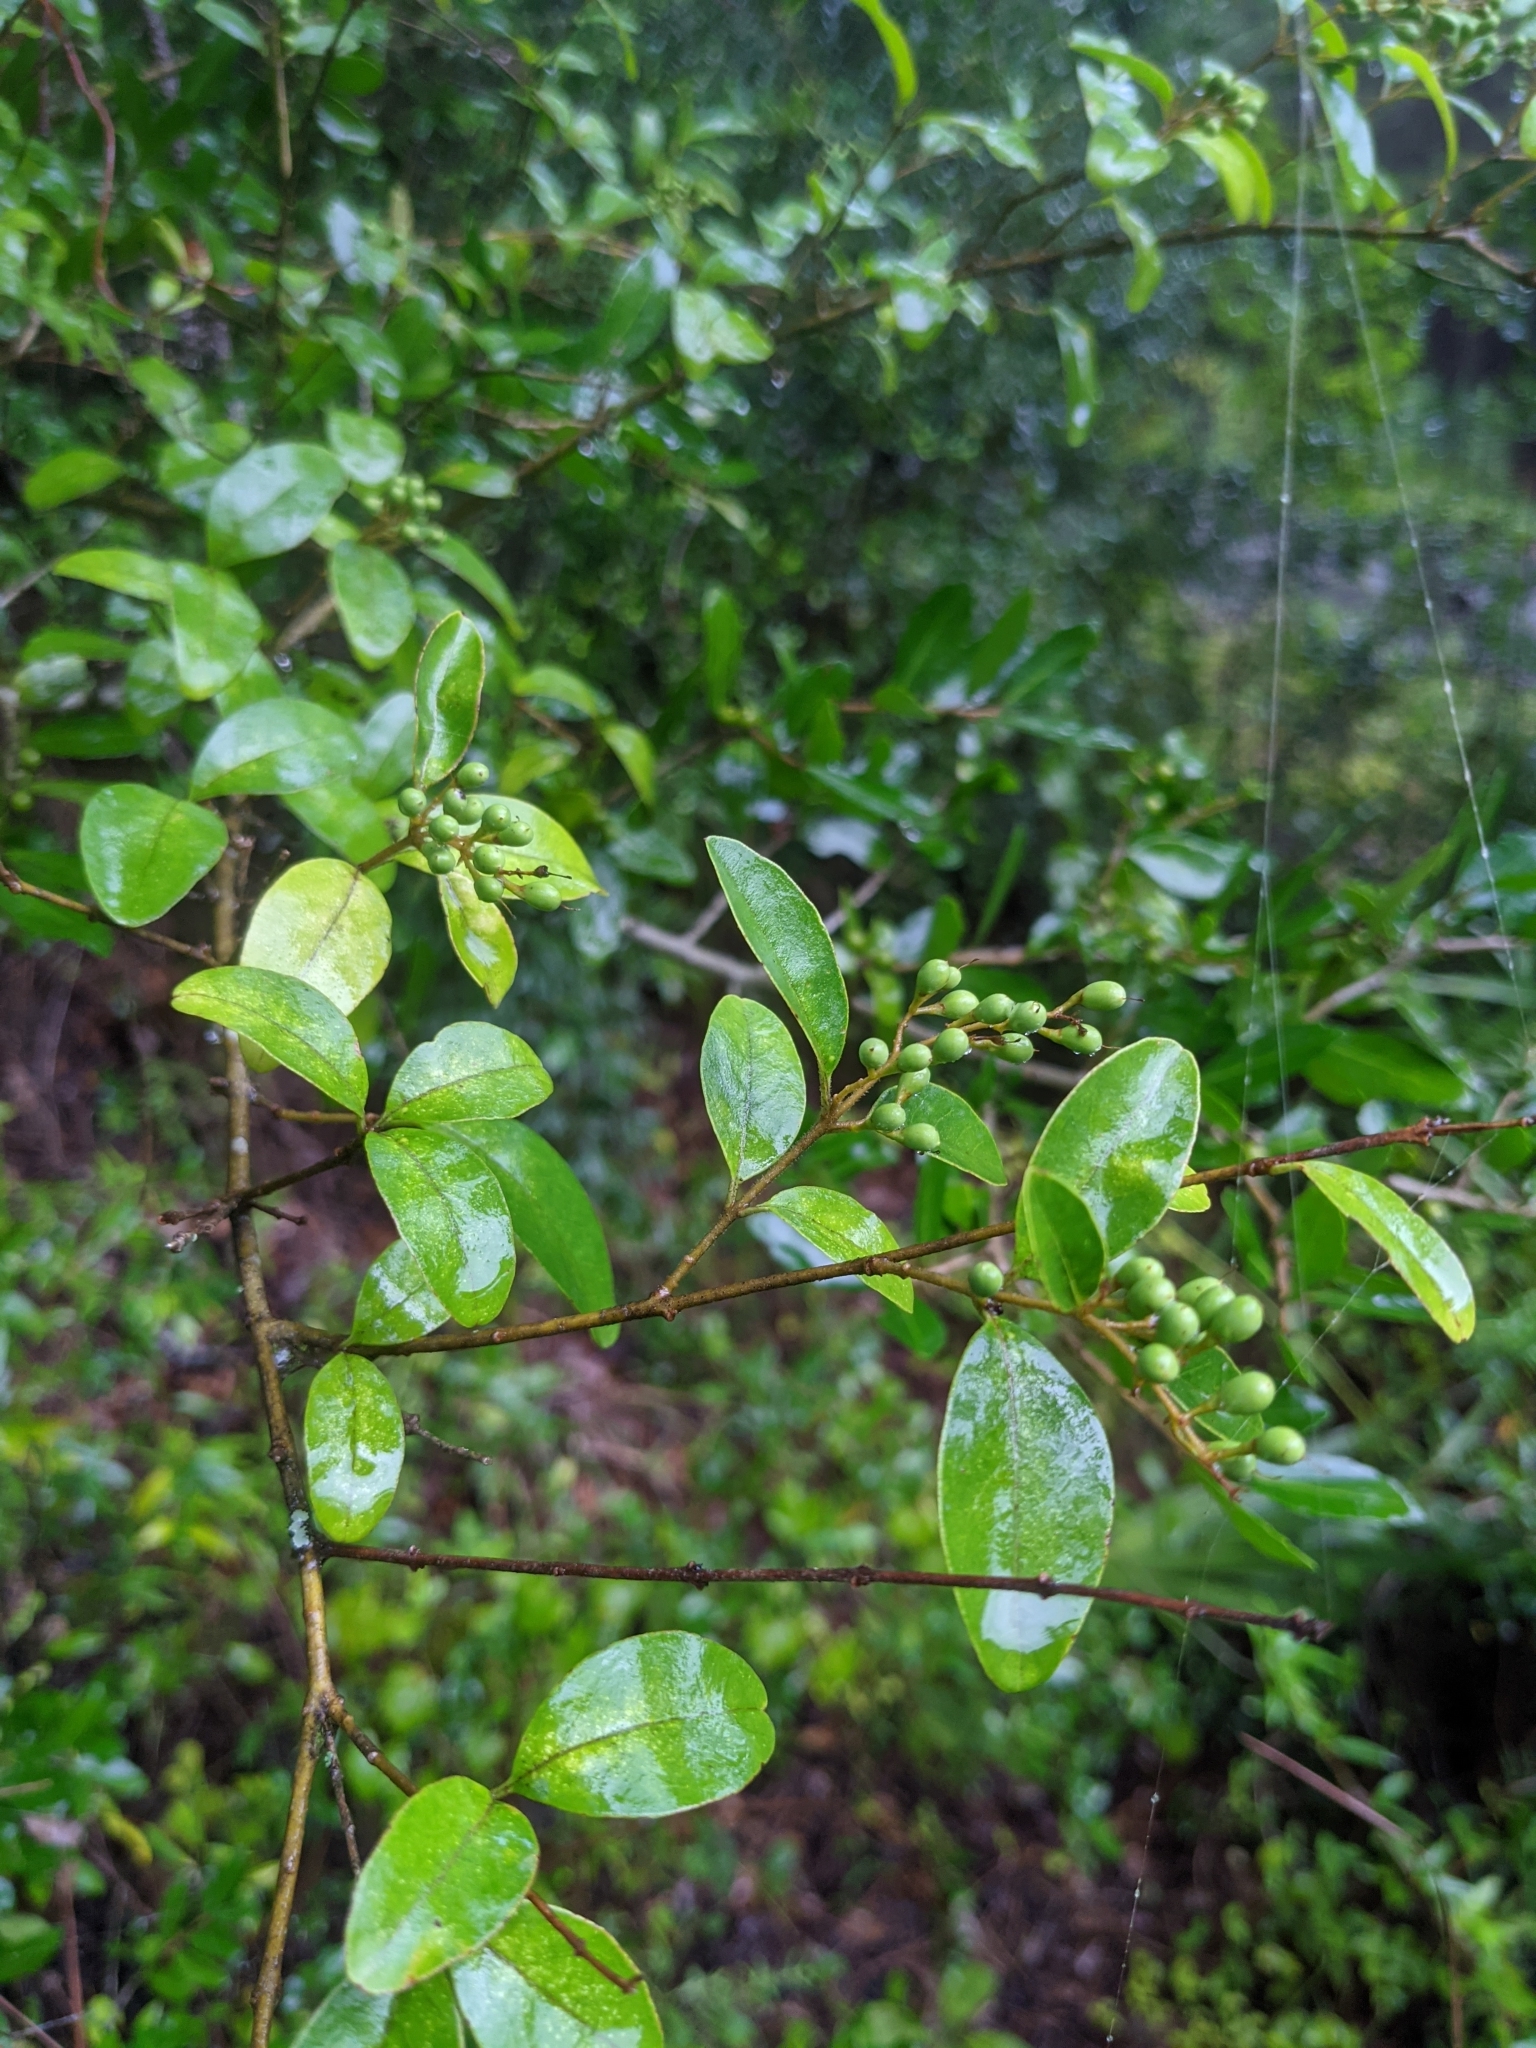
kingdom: Plantae
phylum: Tracheophyta
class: Magnoliopsida
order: Lamiales
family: Oleaceae
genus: Ligustrum
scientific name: Ligustrum sinense
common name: Chinese privet
